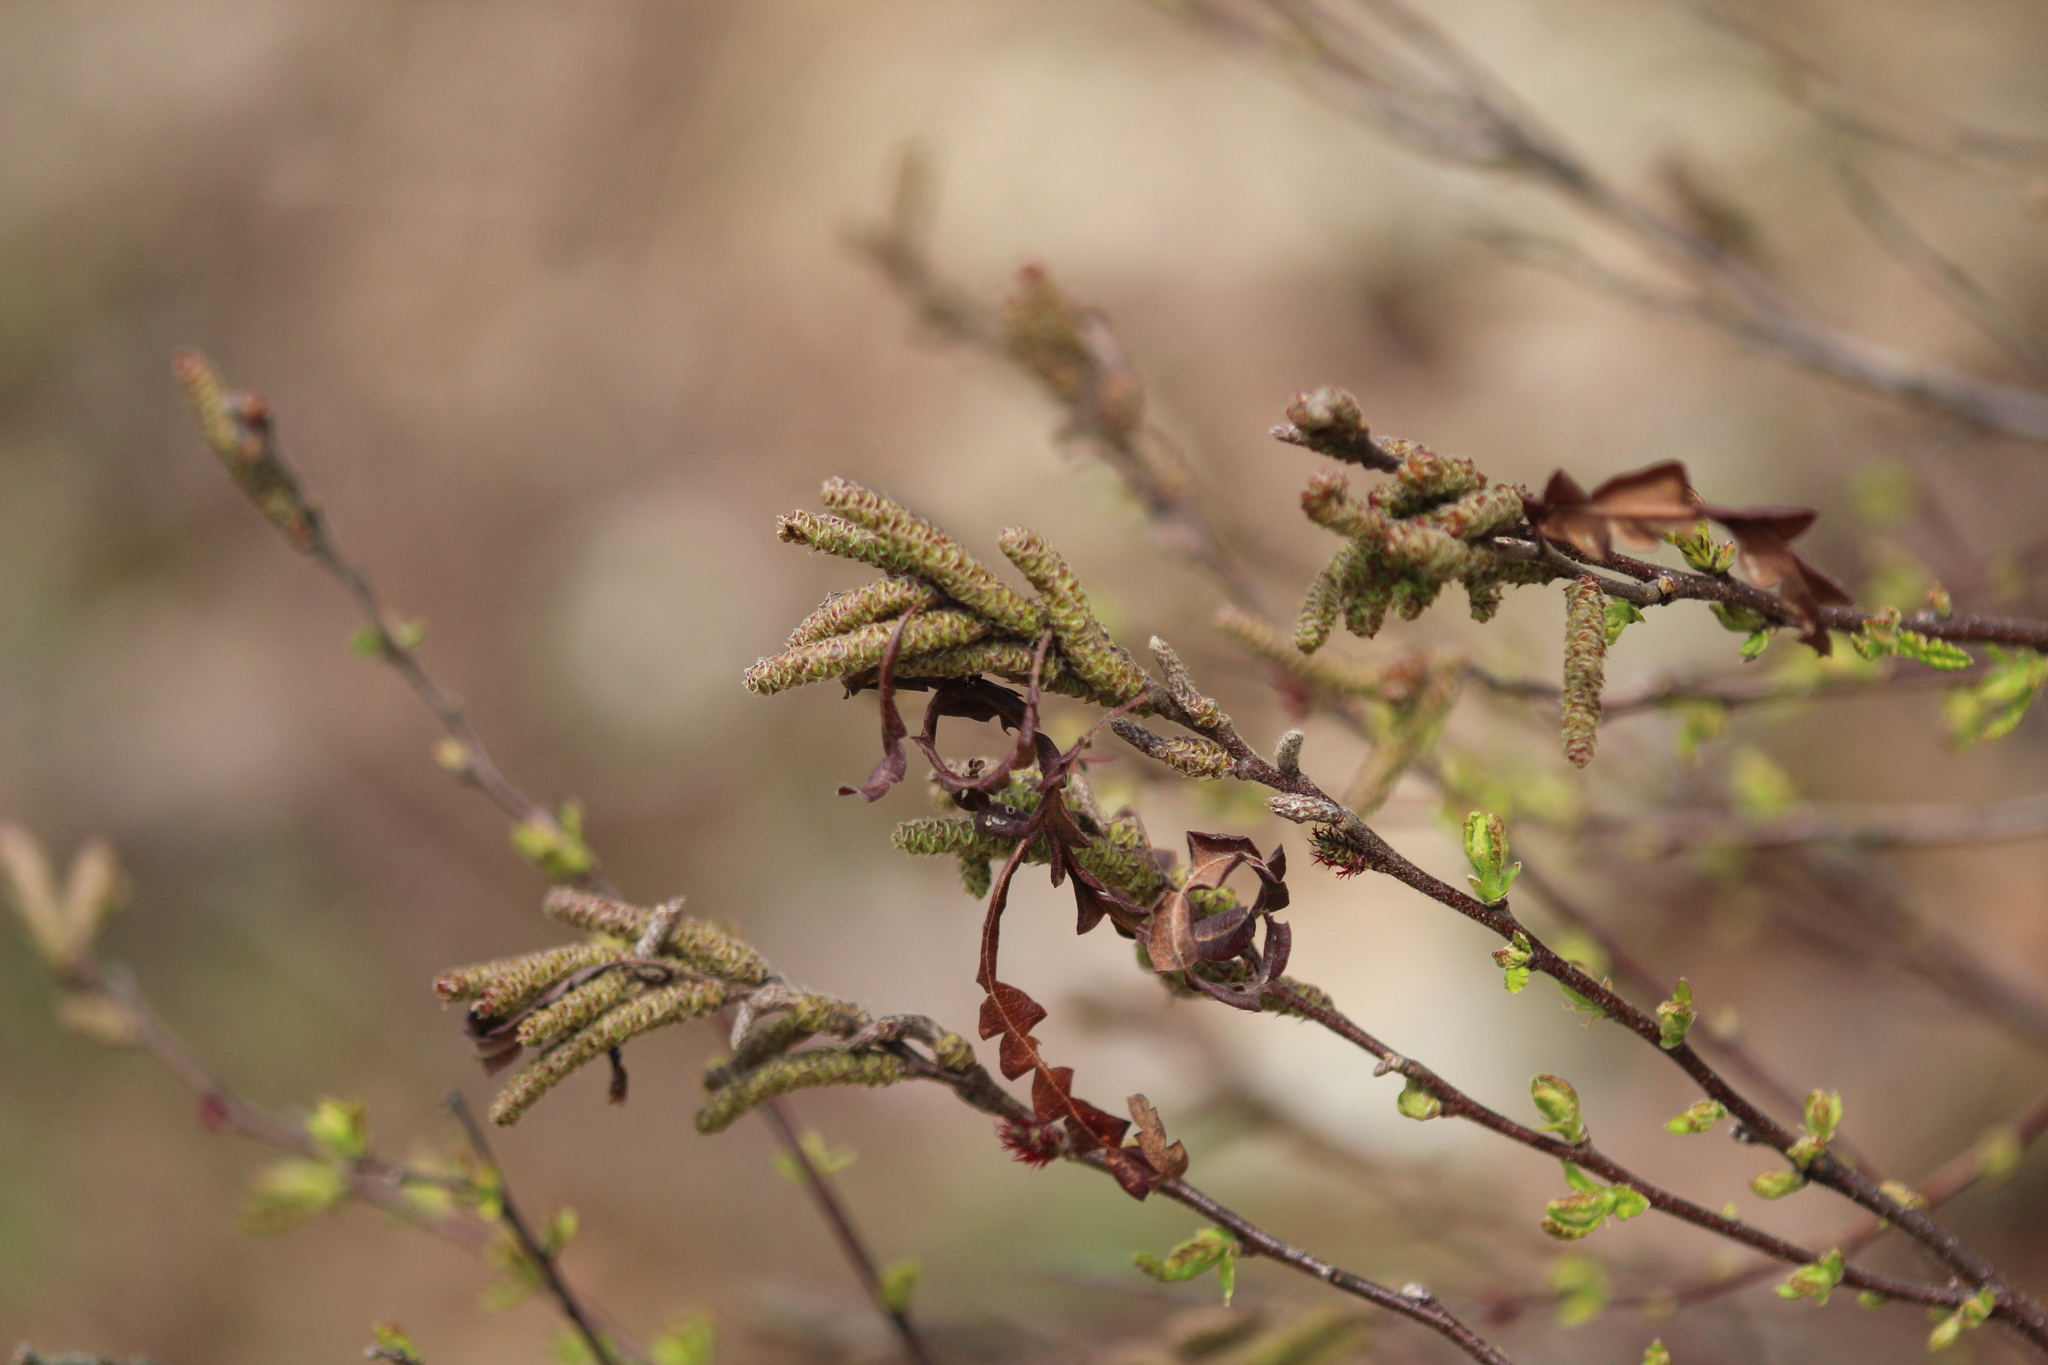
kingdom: Plantae
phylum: Tracheophyta
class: Magnoliopsida
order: Fagales
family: Myricaceae
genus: Comptonia
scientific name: Comptonia peregrina
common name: Sweet-fern
